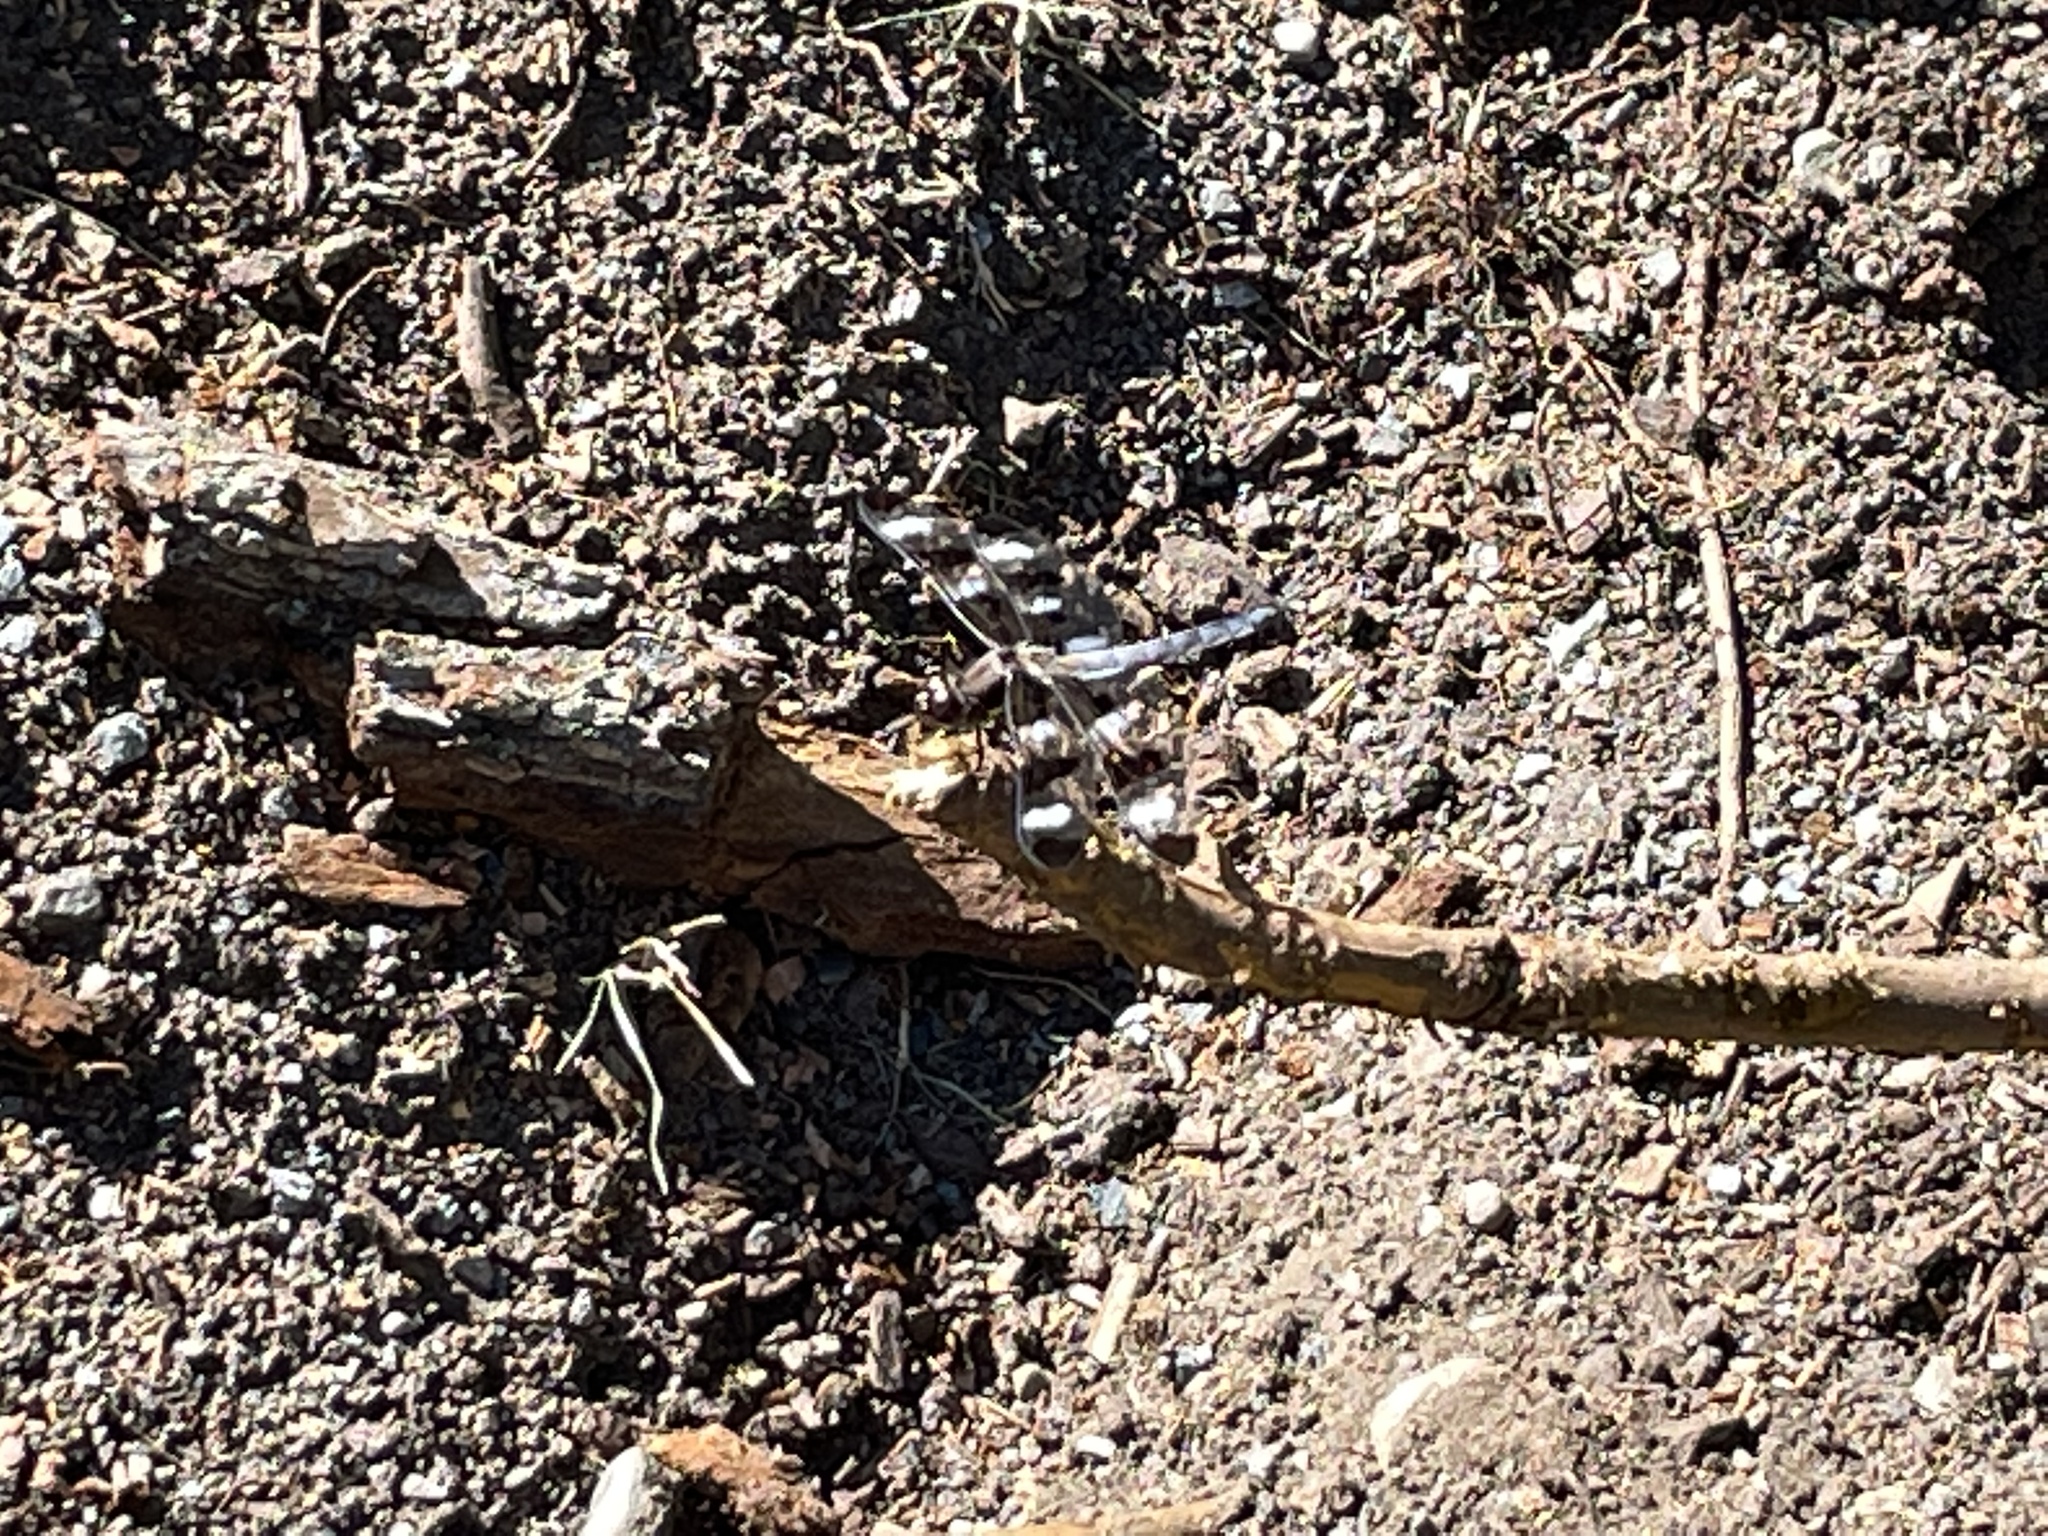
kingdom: Animalia
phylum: Arthropoda
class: Insecta
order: Odonata
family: Libellulidae
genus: Libellula
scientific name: Libellula pulchella
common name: Twelve-spotted skimmer
